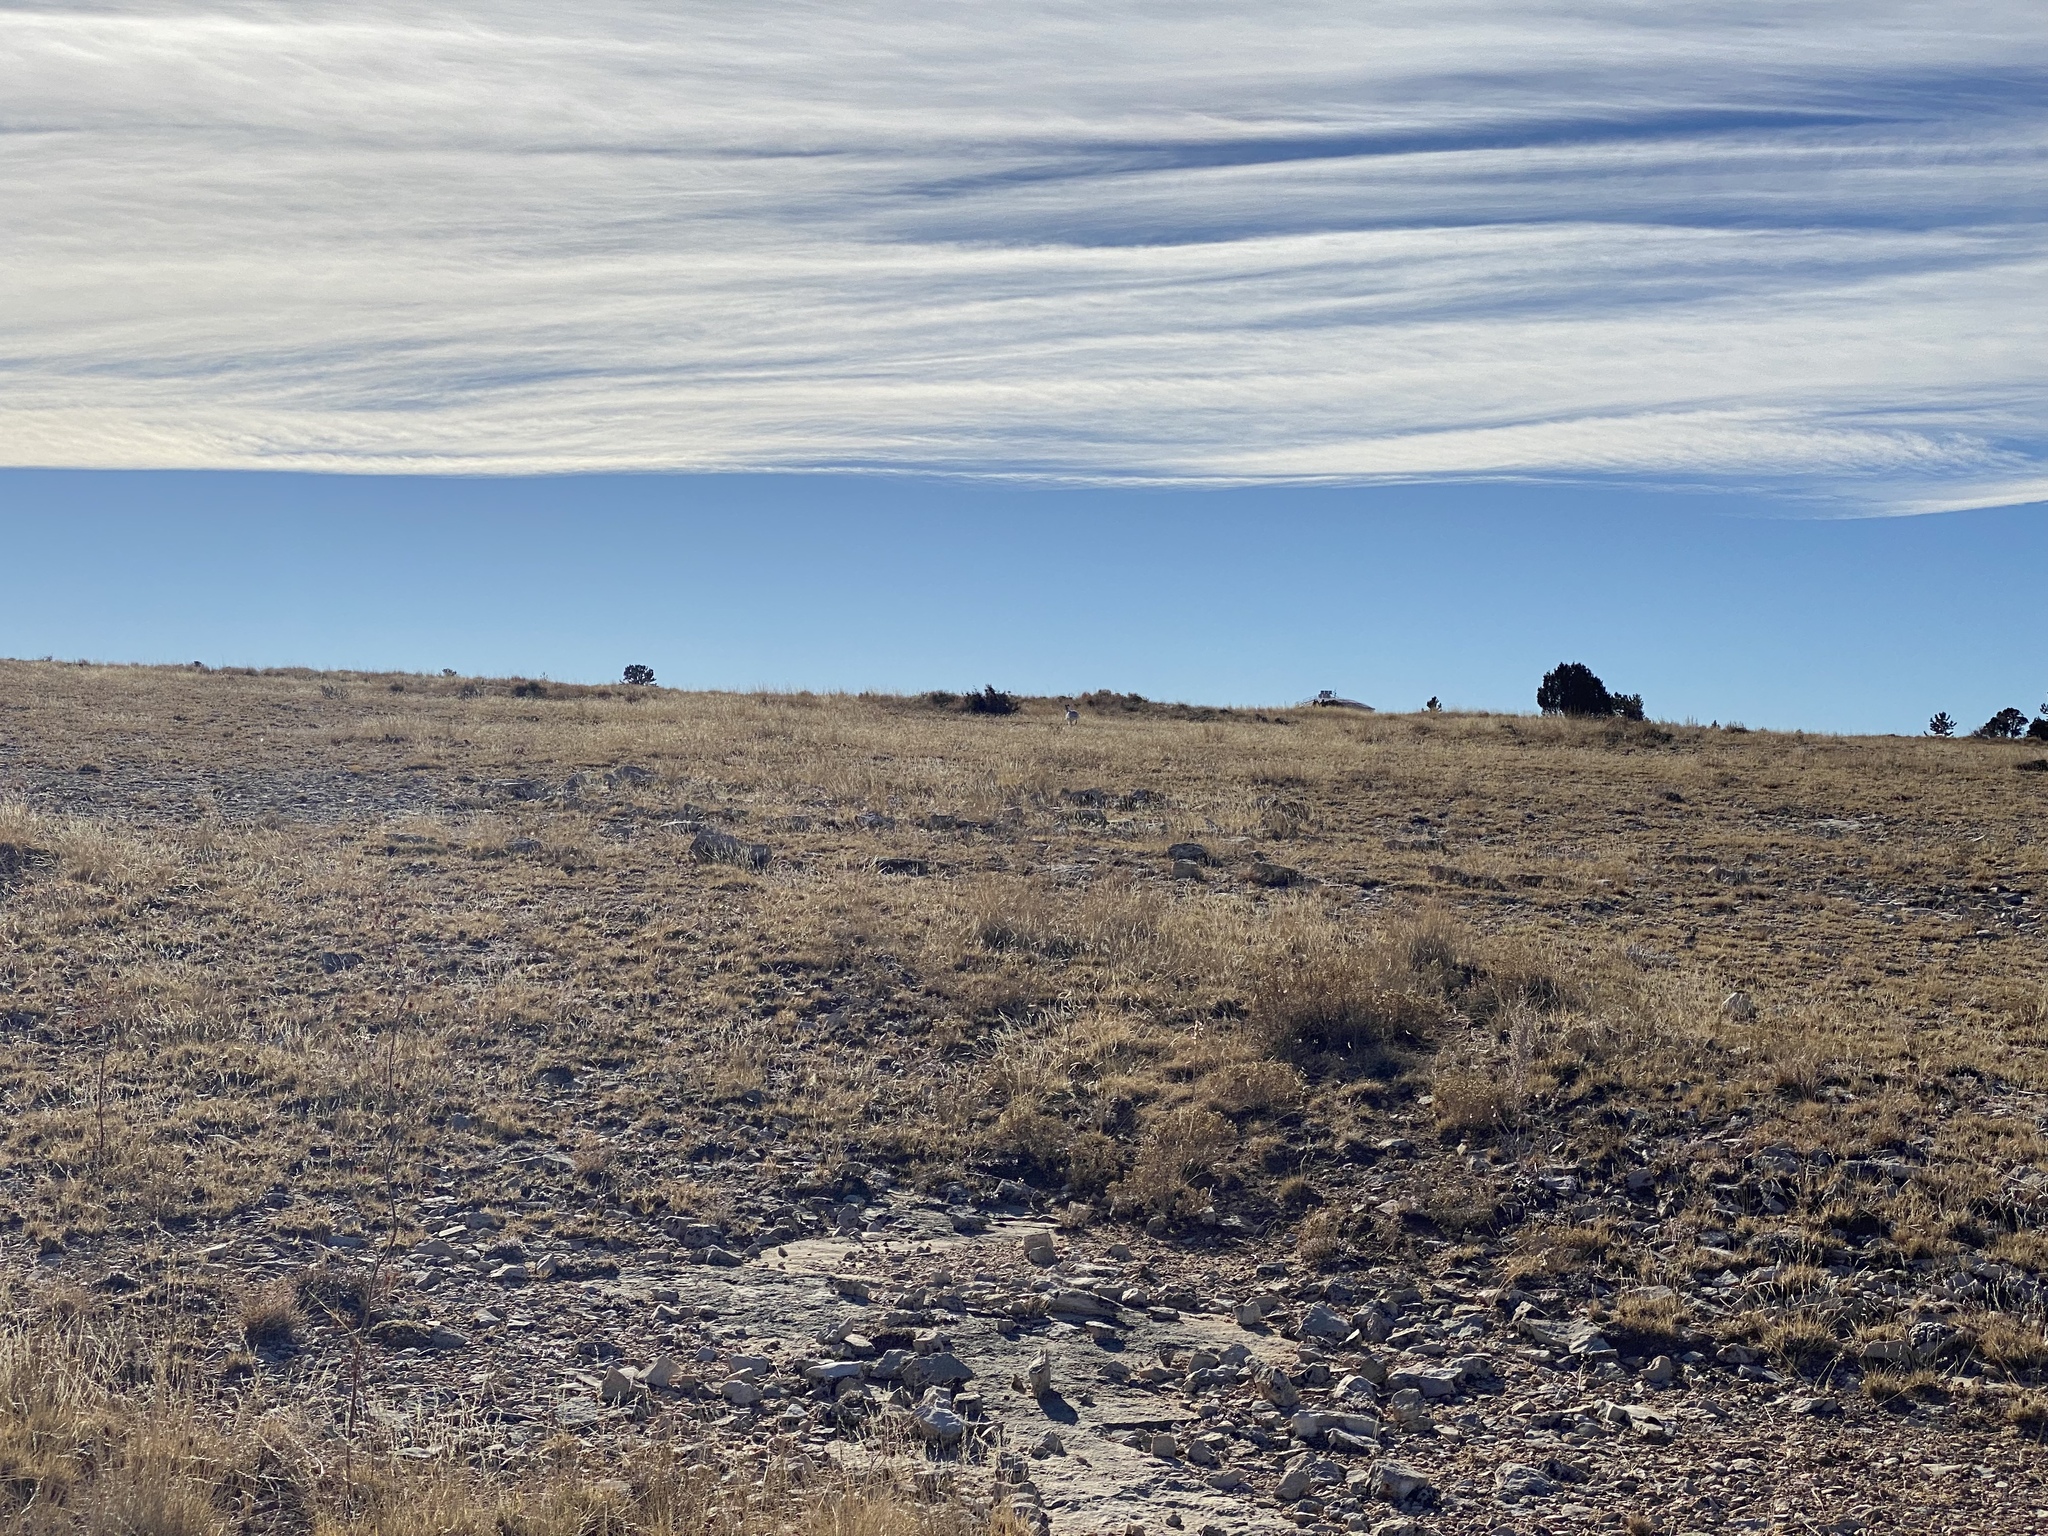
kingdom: Animalia
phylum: Chordata
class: Mammalia
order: Lagomorpha
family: Leporidae
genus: Lepus
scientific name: Lepus townsendii
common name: White-tailed jackrabbit
